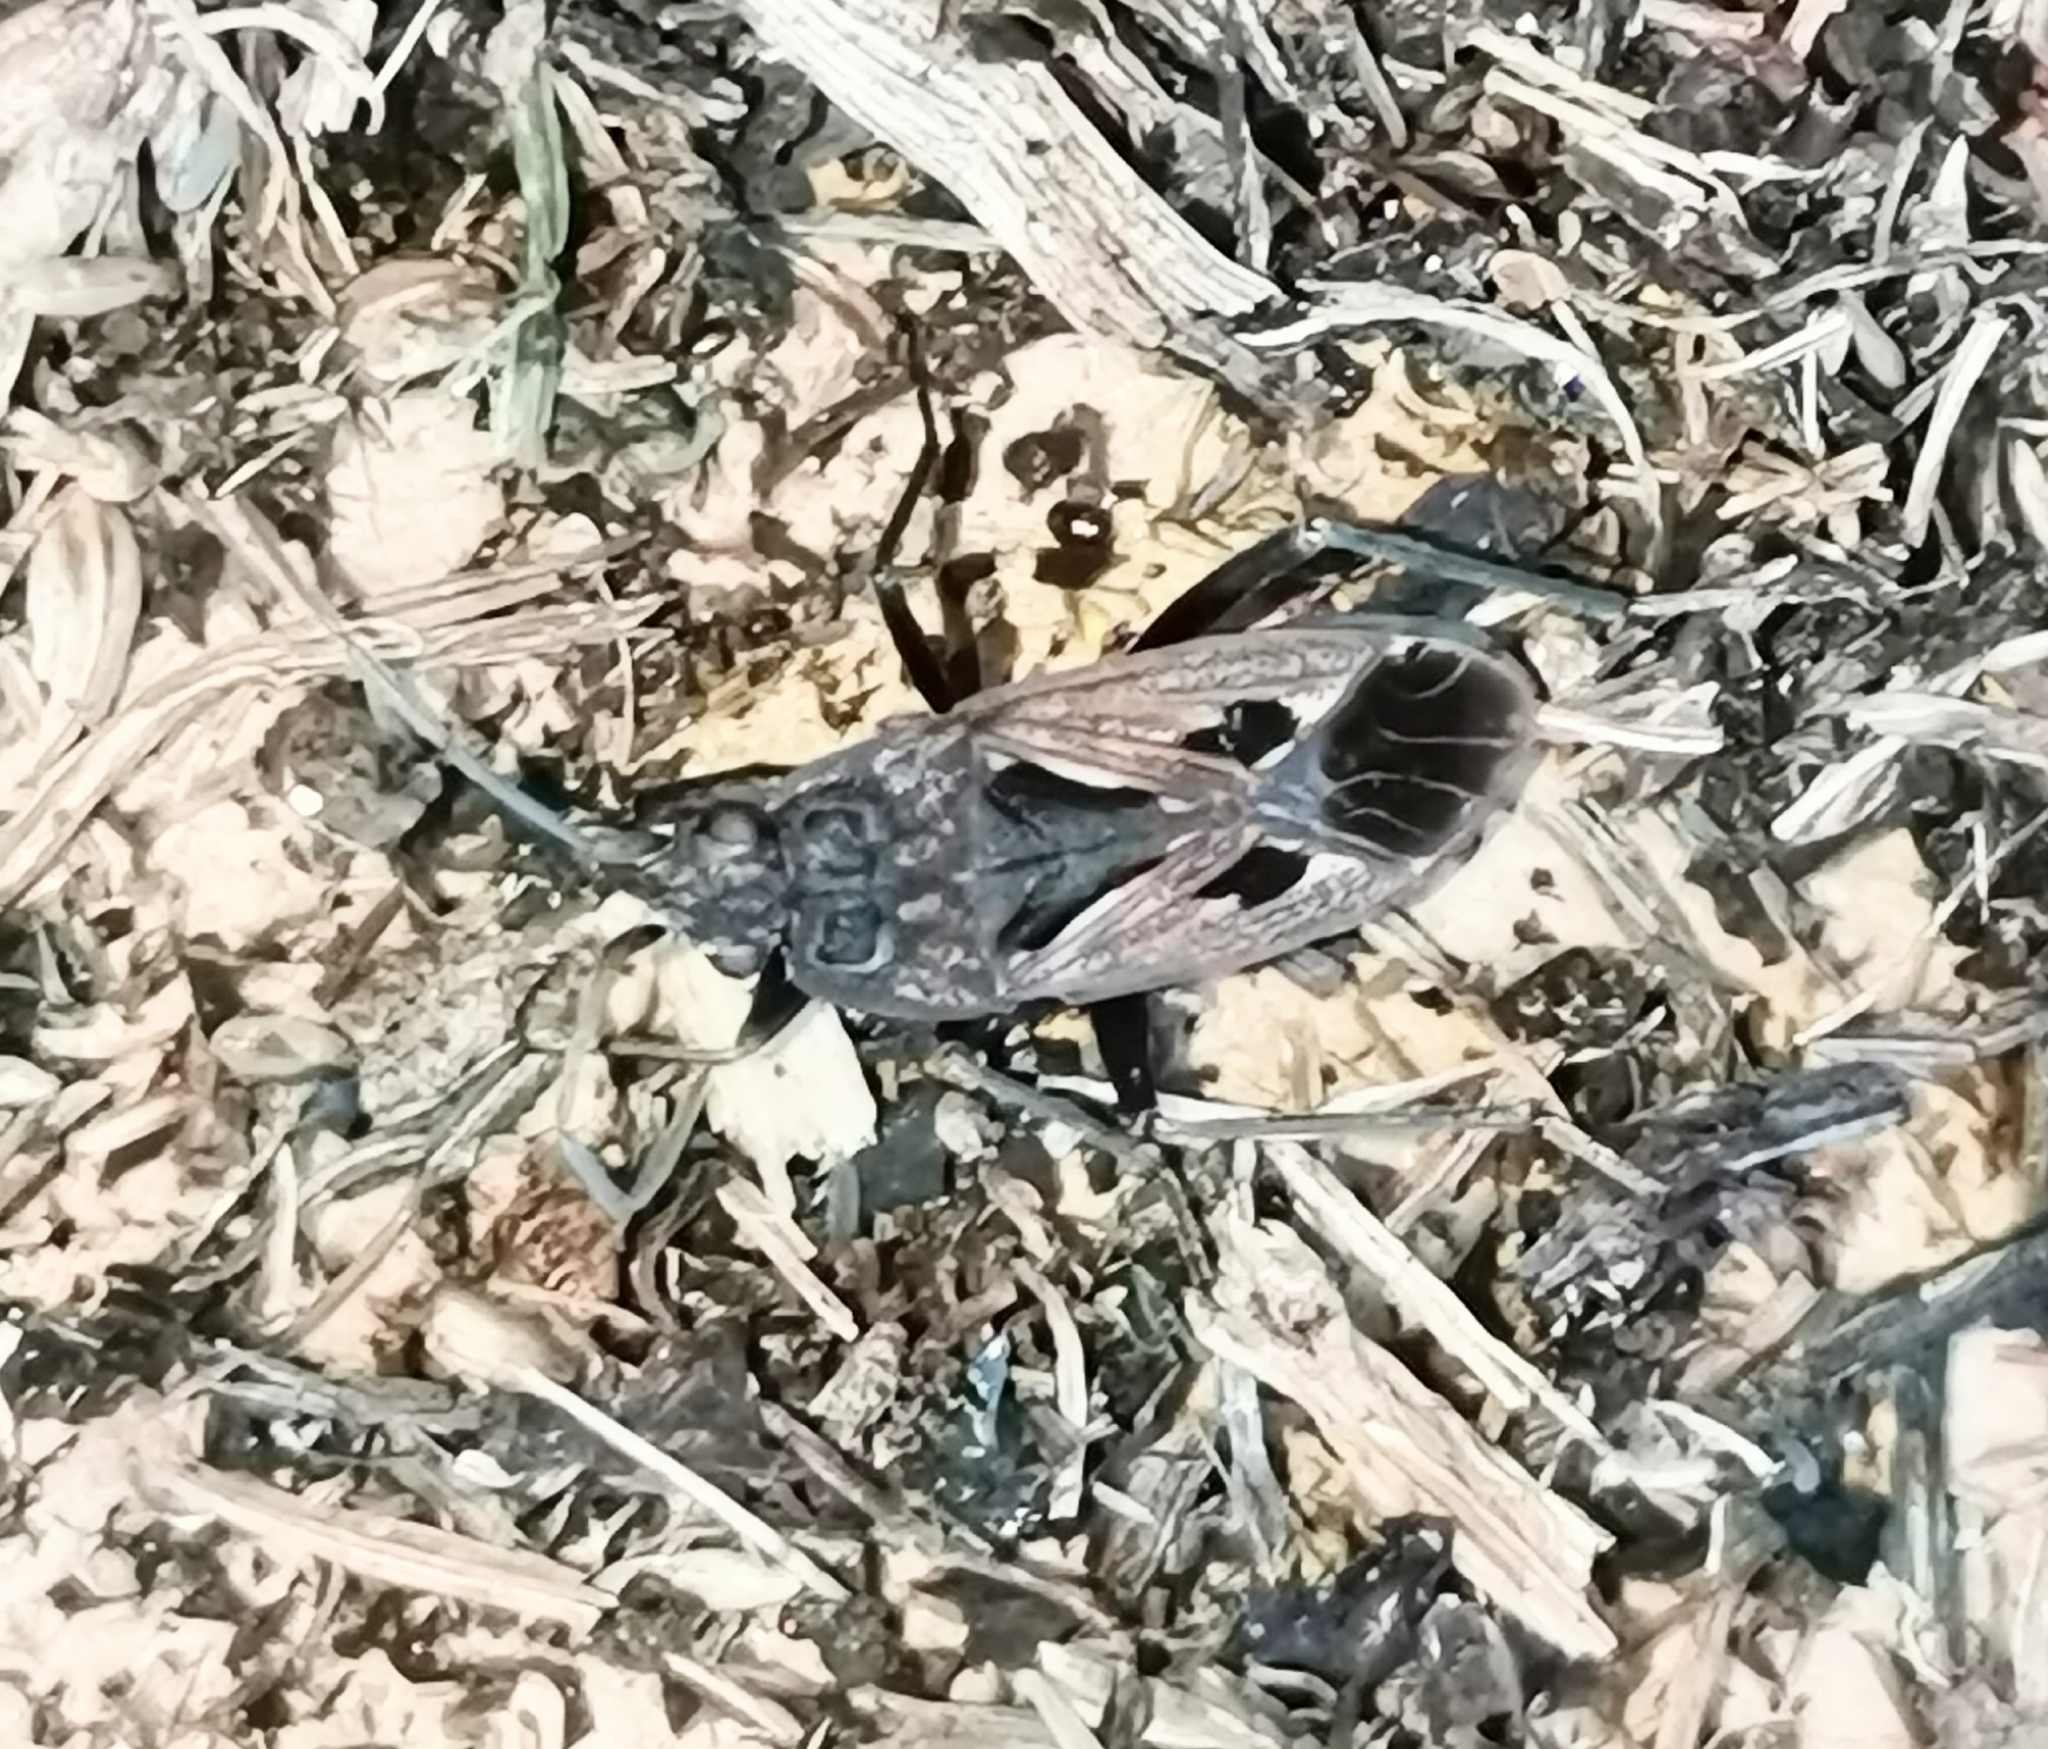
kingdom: Animalia
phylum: Arthropoda
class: Insecta
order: Hemiptera
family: Rhyparochromidae
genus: Rhyparochromus
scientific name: Rhyparochromus pini
